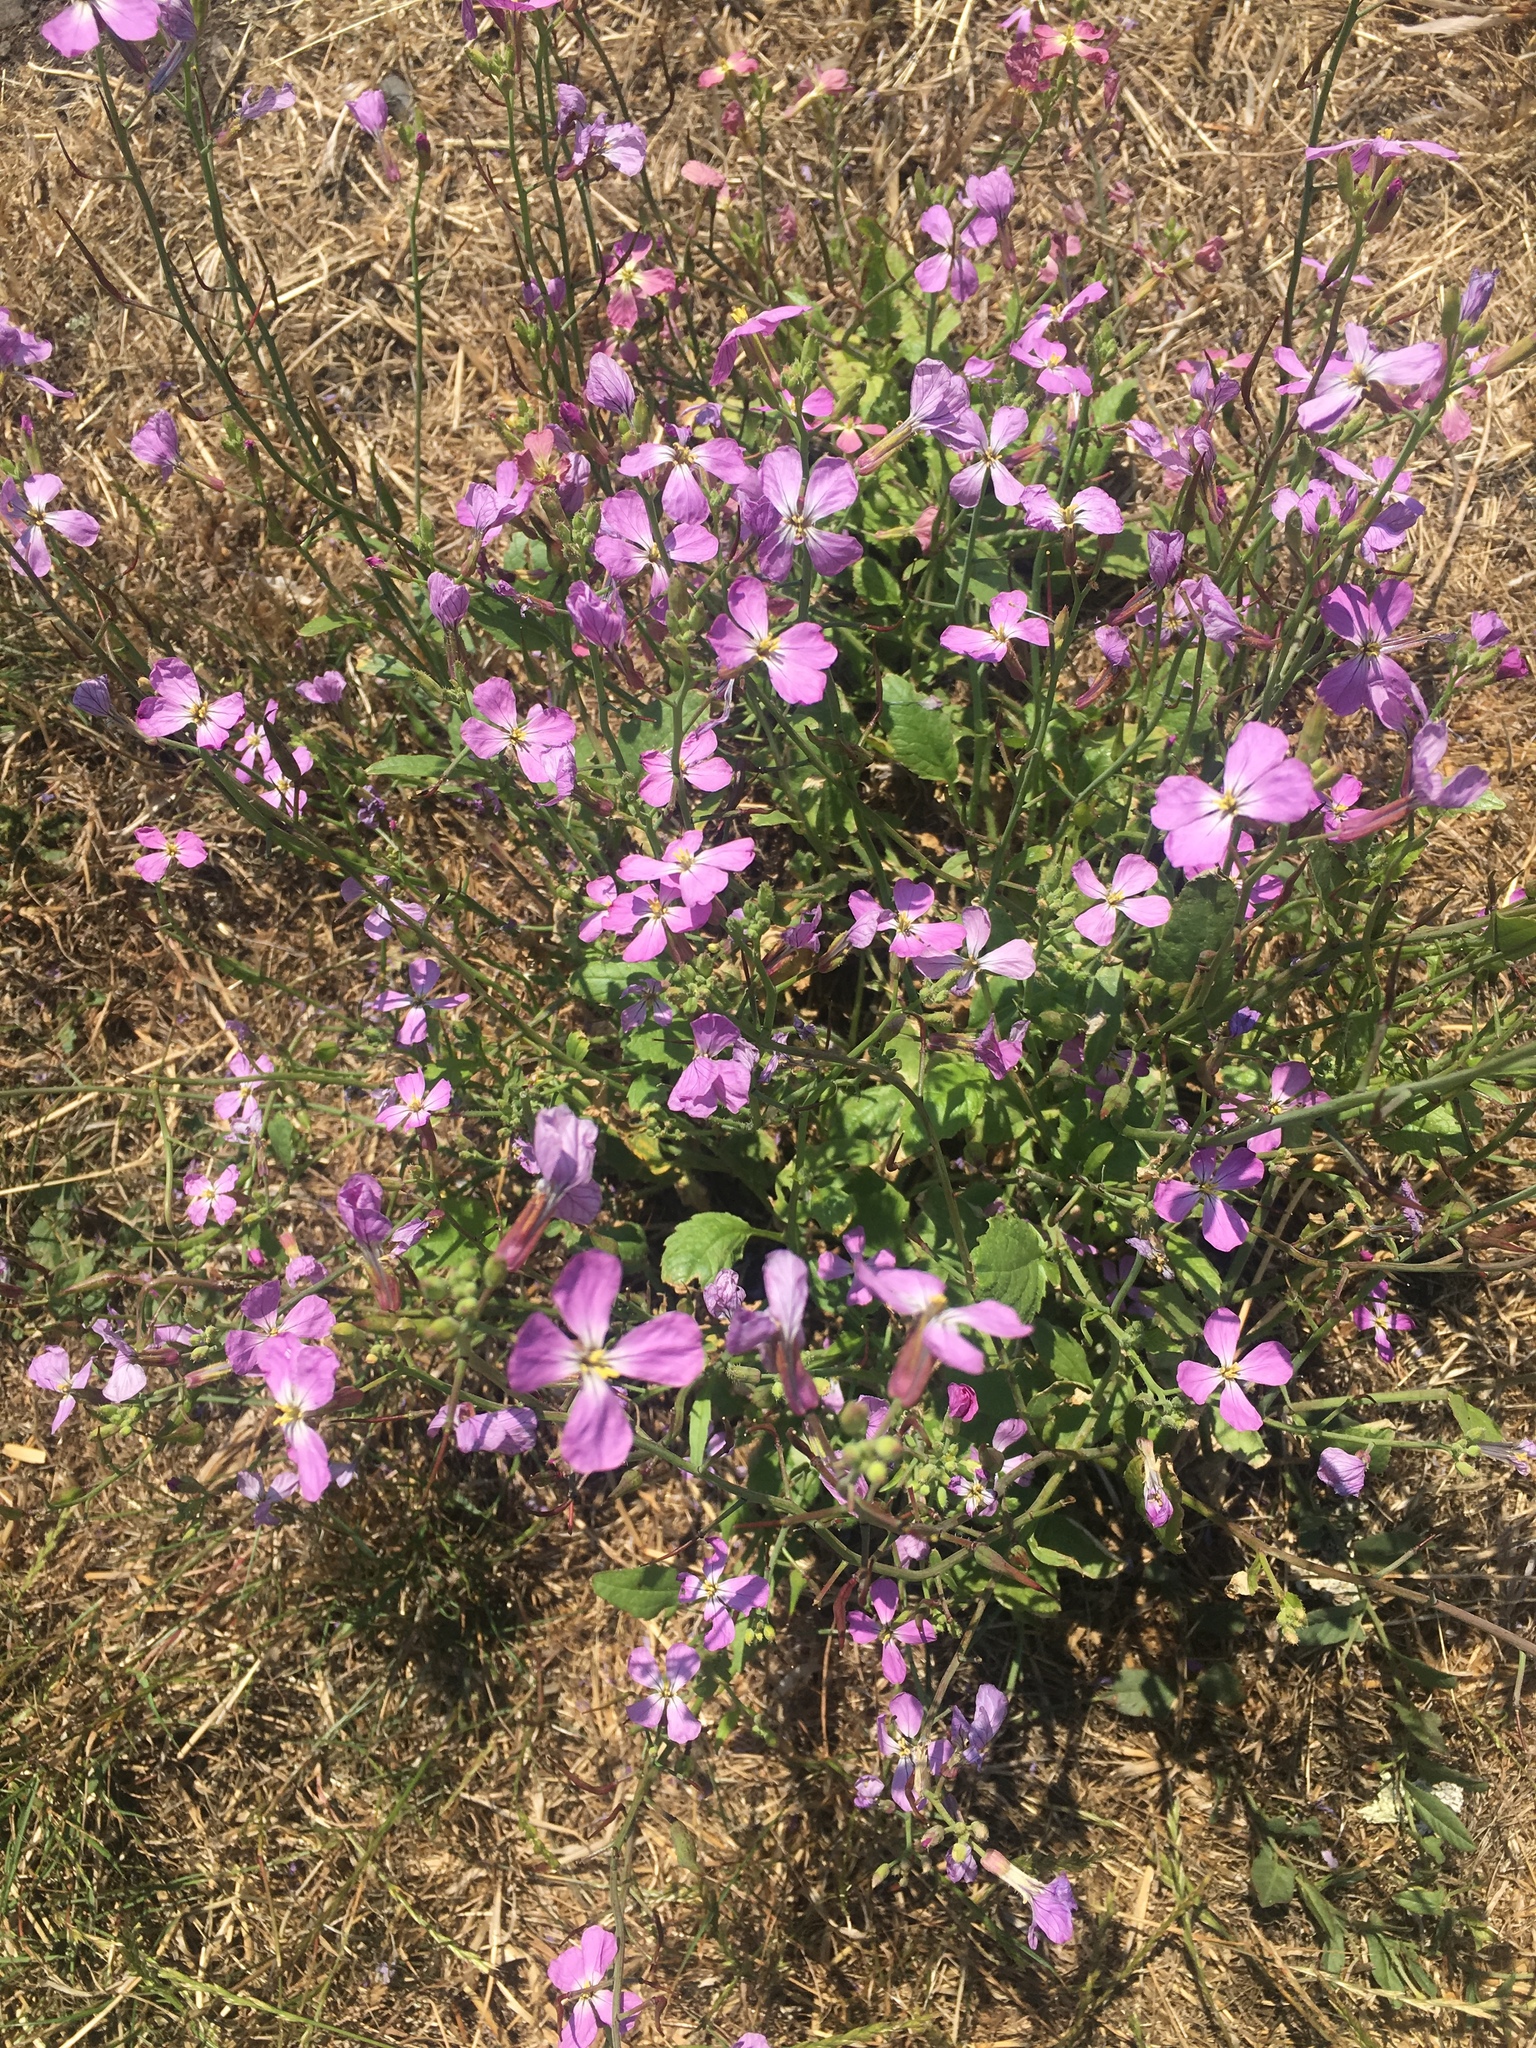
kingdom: Plantae
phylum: Tracheophyta
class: Magnoliopsida
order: Brassicales
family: Brassicaceae
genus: Raphanus
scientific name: Raphanus sativus
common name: Cultivated radish
